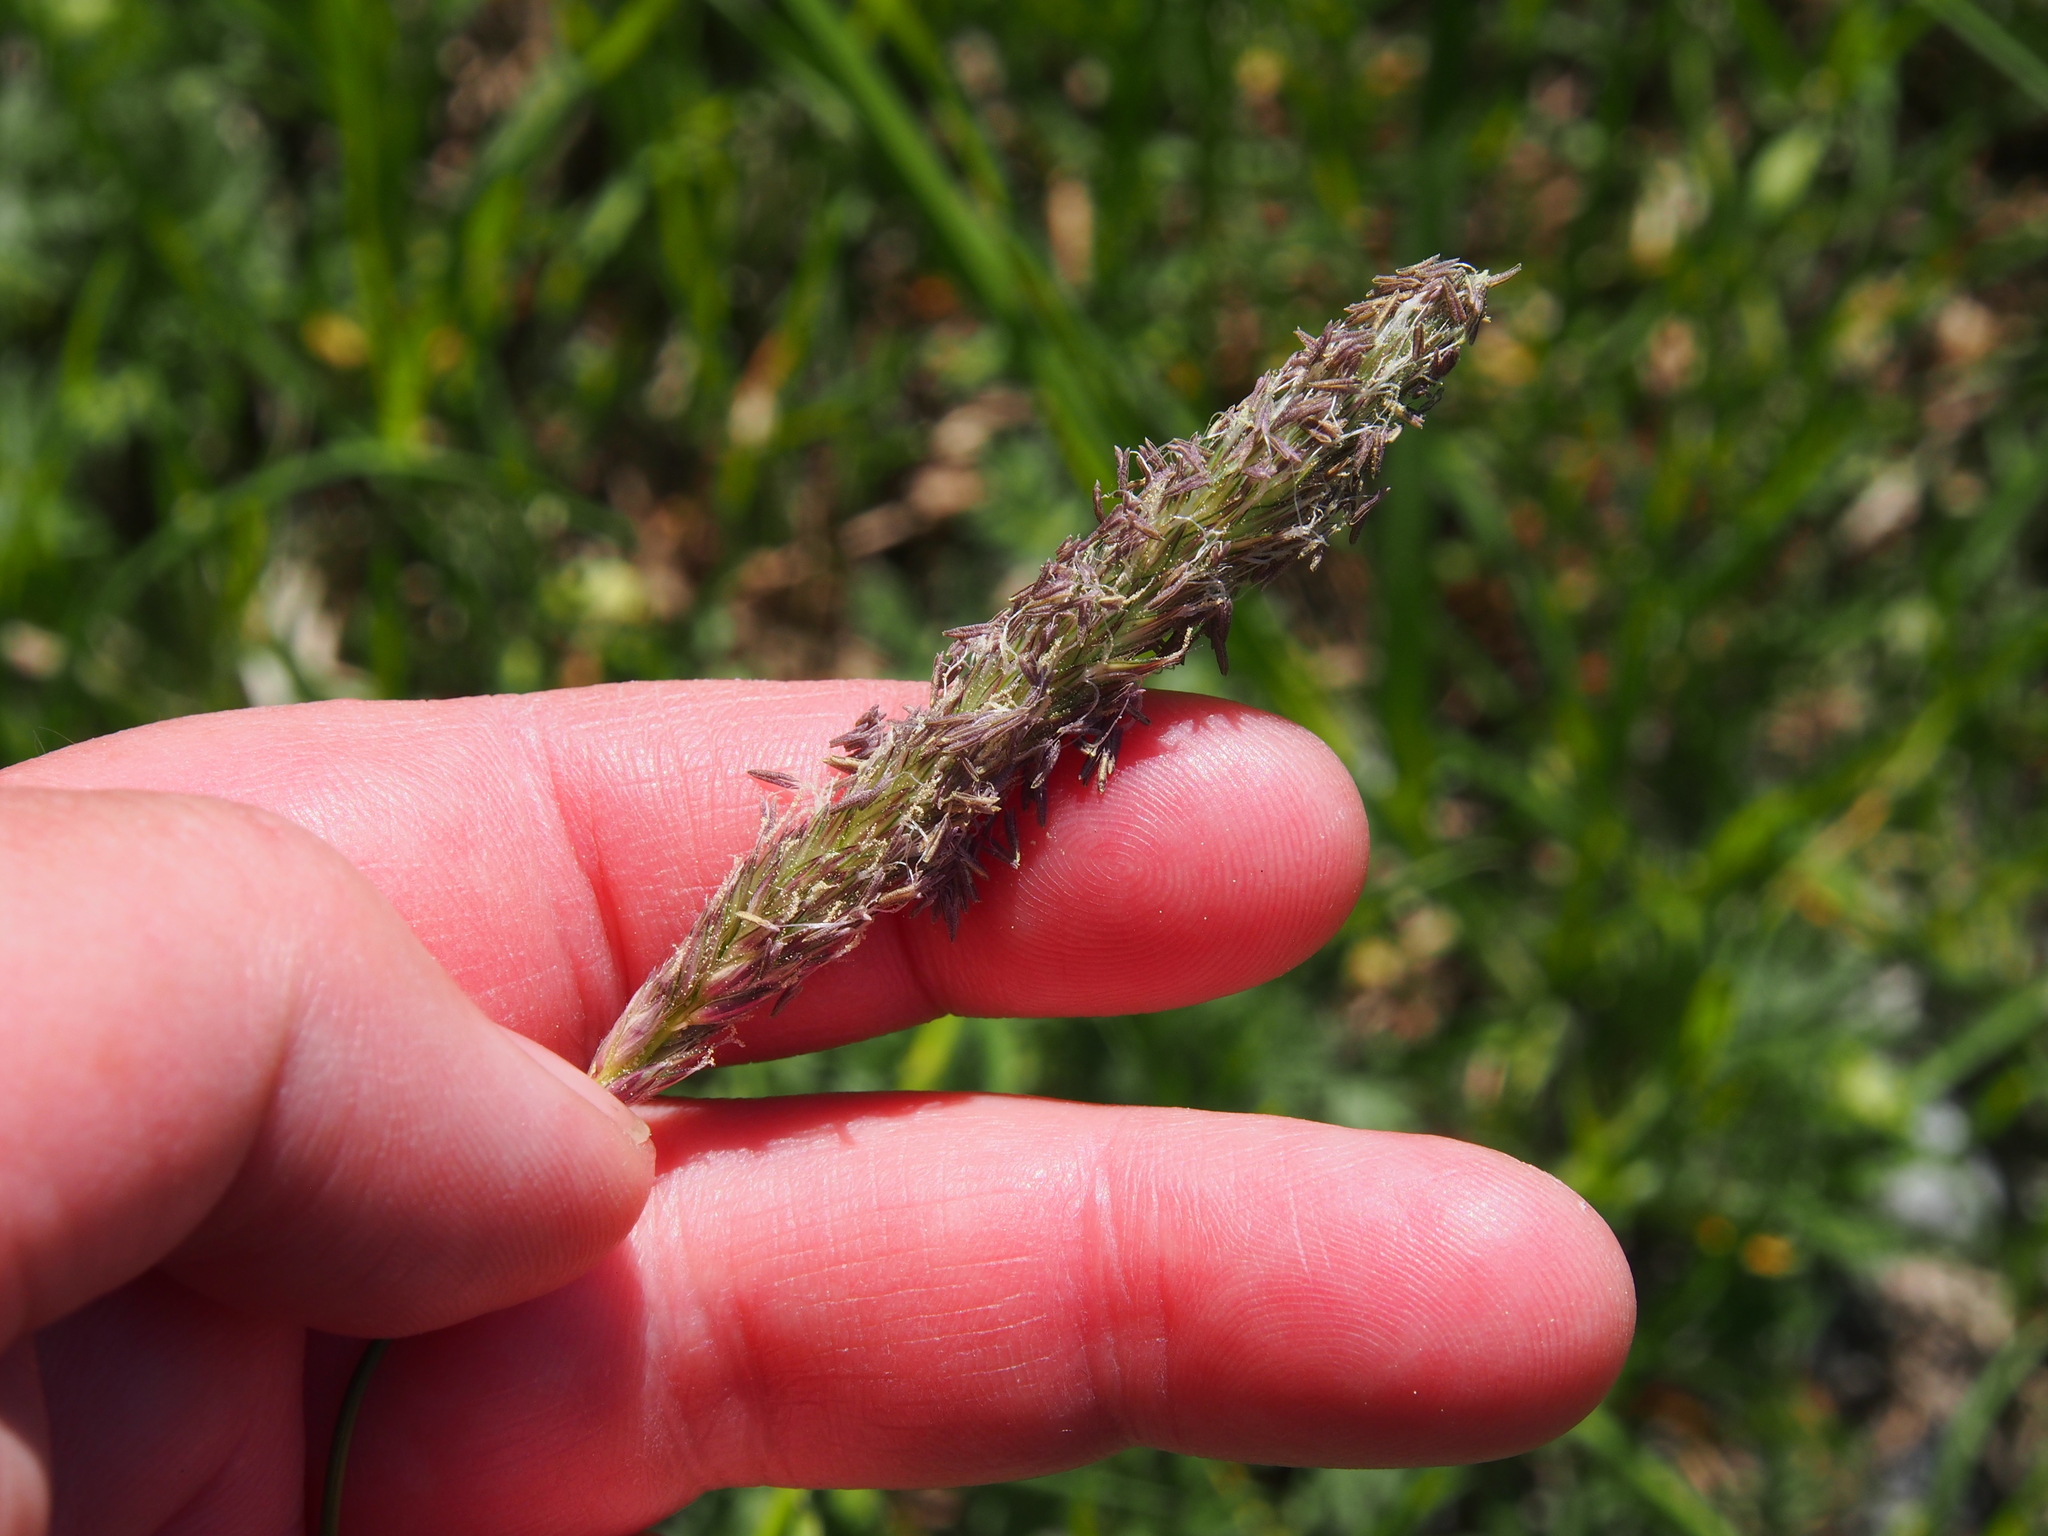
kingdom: Plantae
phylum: Tracheophyta
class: Liliopsida
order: Poales
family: Poaceae
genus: Alopecurus
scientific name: Alopecurus pratensis
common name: Meadow foxtail
